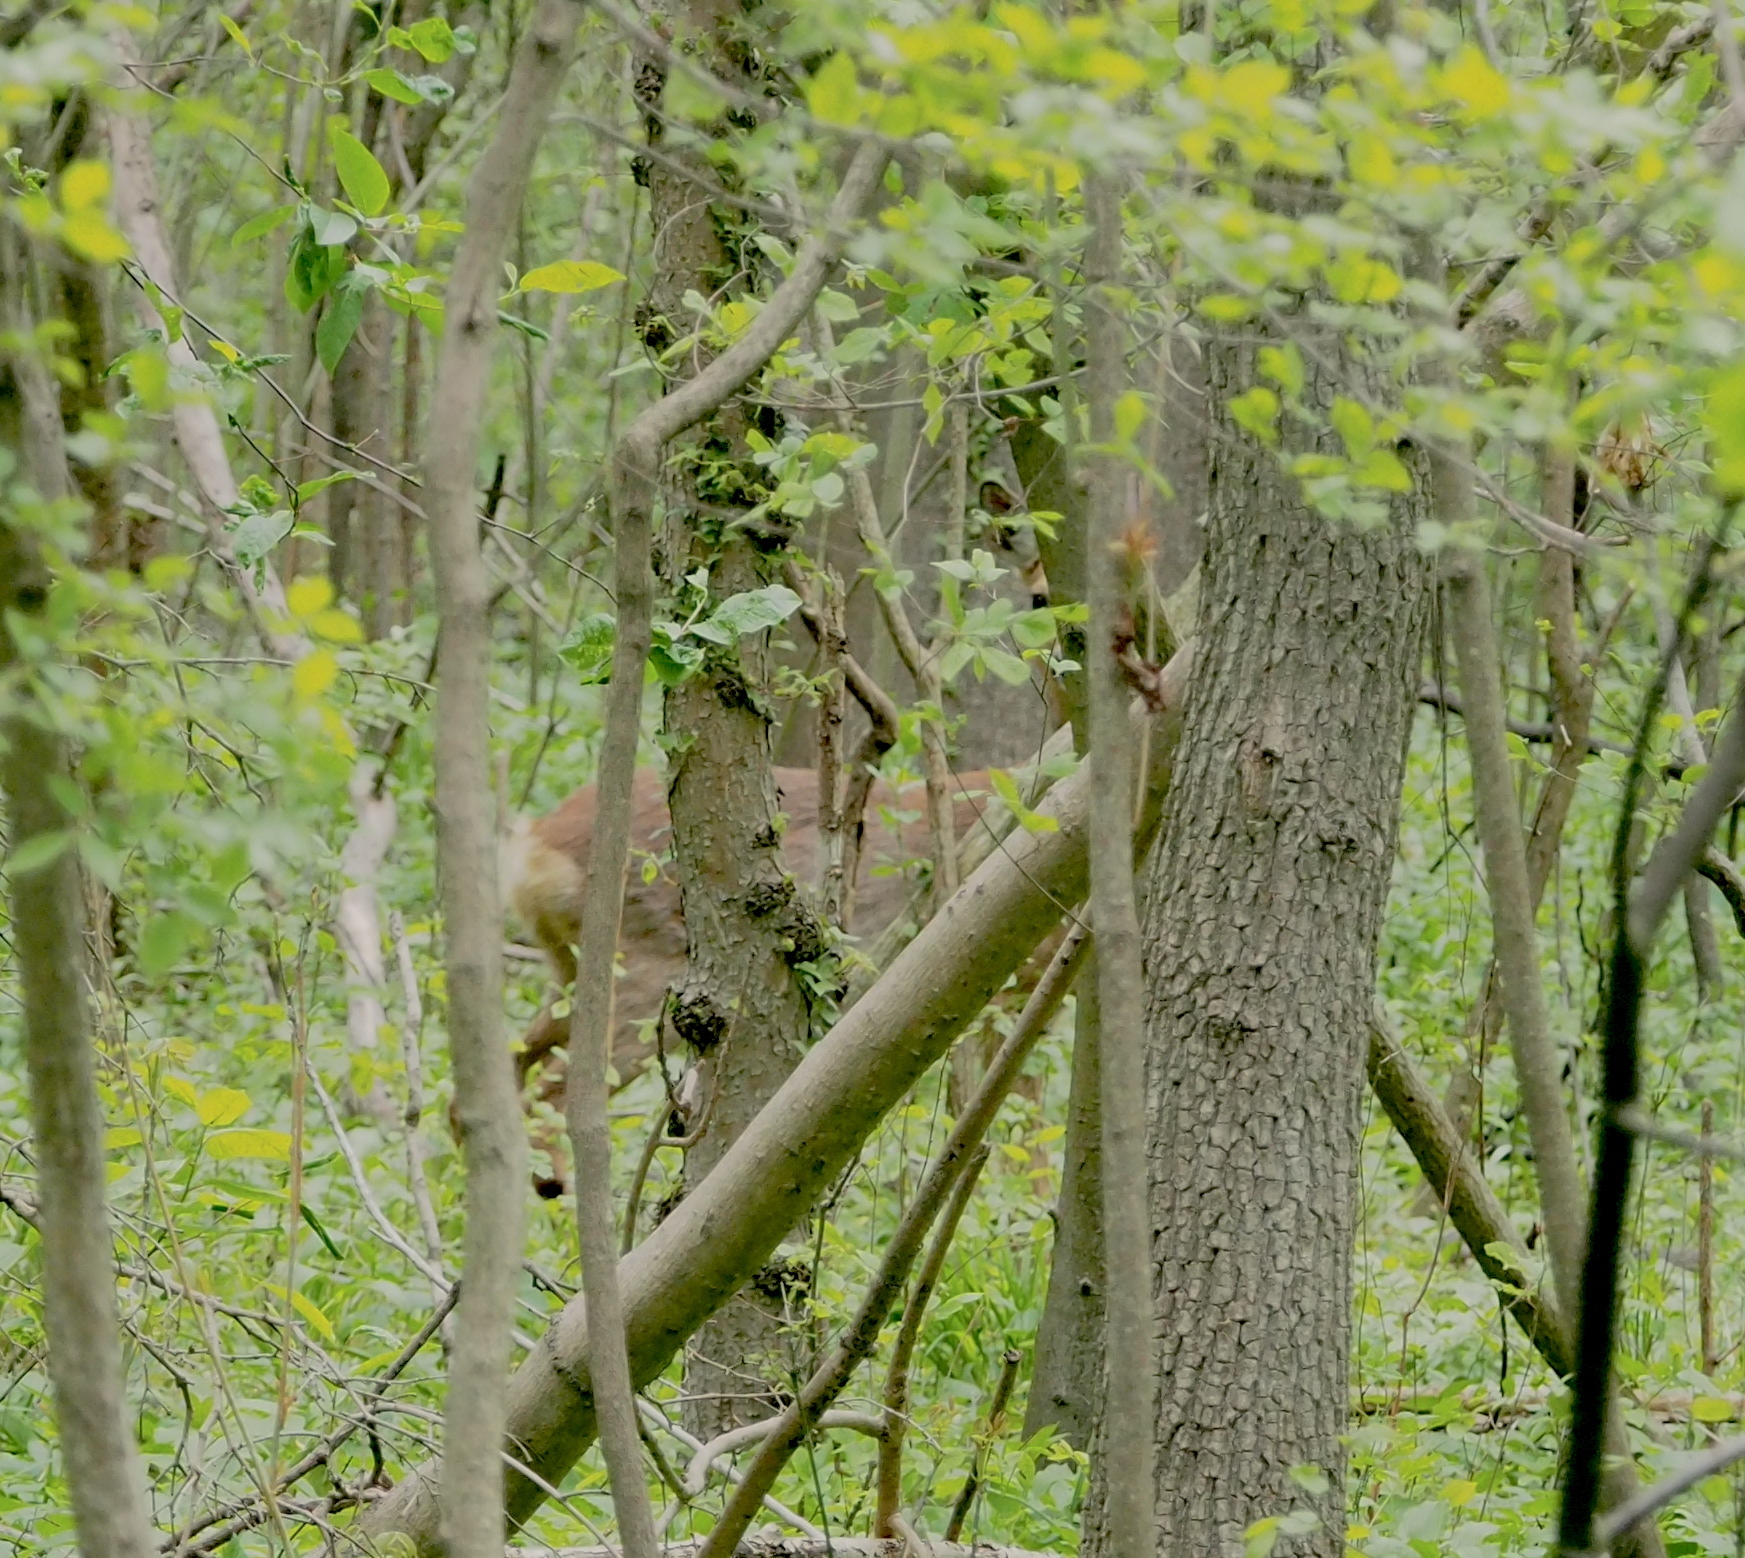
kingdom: Animalia
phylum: Chordata
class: Mammalia
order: Artiodactyla
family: Cervidae
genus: Capreolus
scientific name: Capreolus capreolus
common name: Western roe deer
